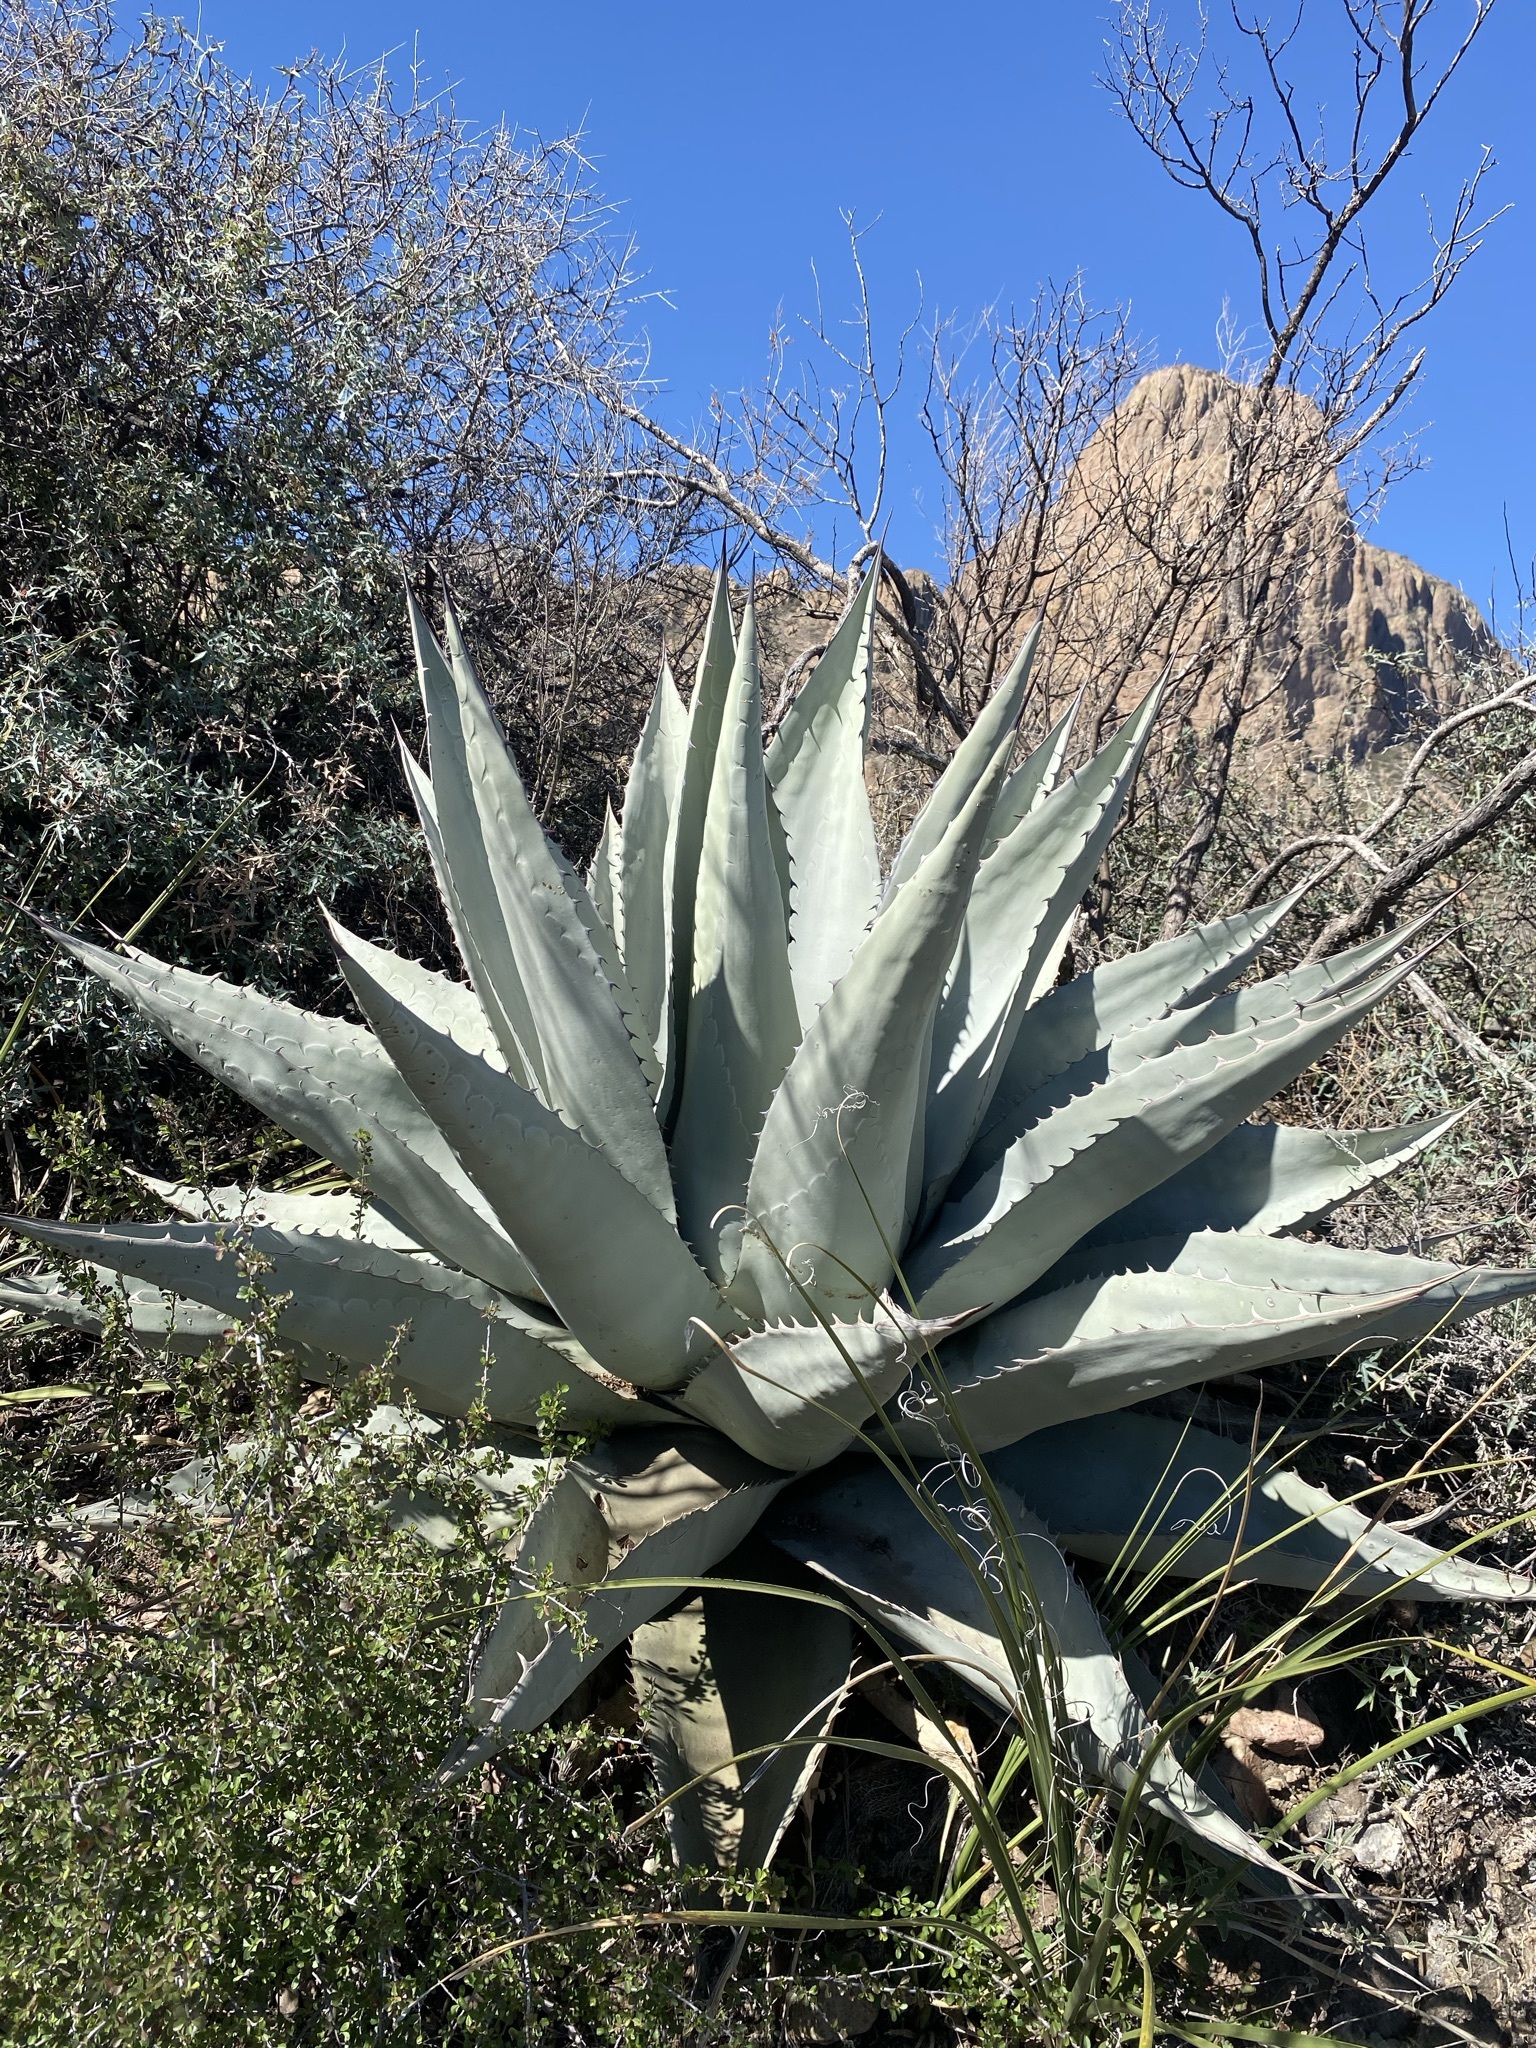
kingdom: Plantae
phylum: Tracheophyta
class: Liliopsida
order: Asparagales
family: Asparagaceae
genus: Agave
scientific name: Agave havardiana
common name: Havard agave
